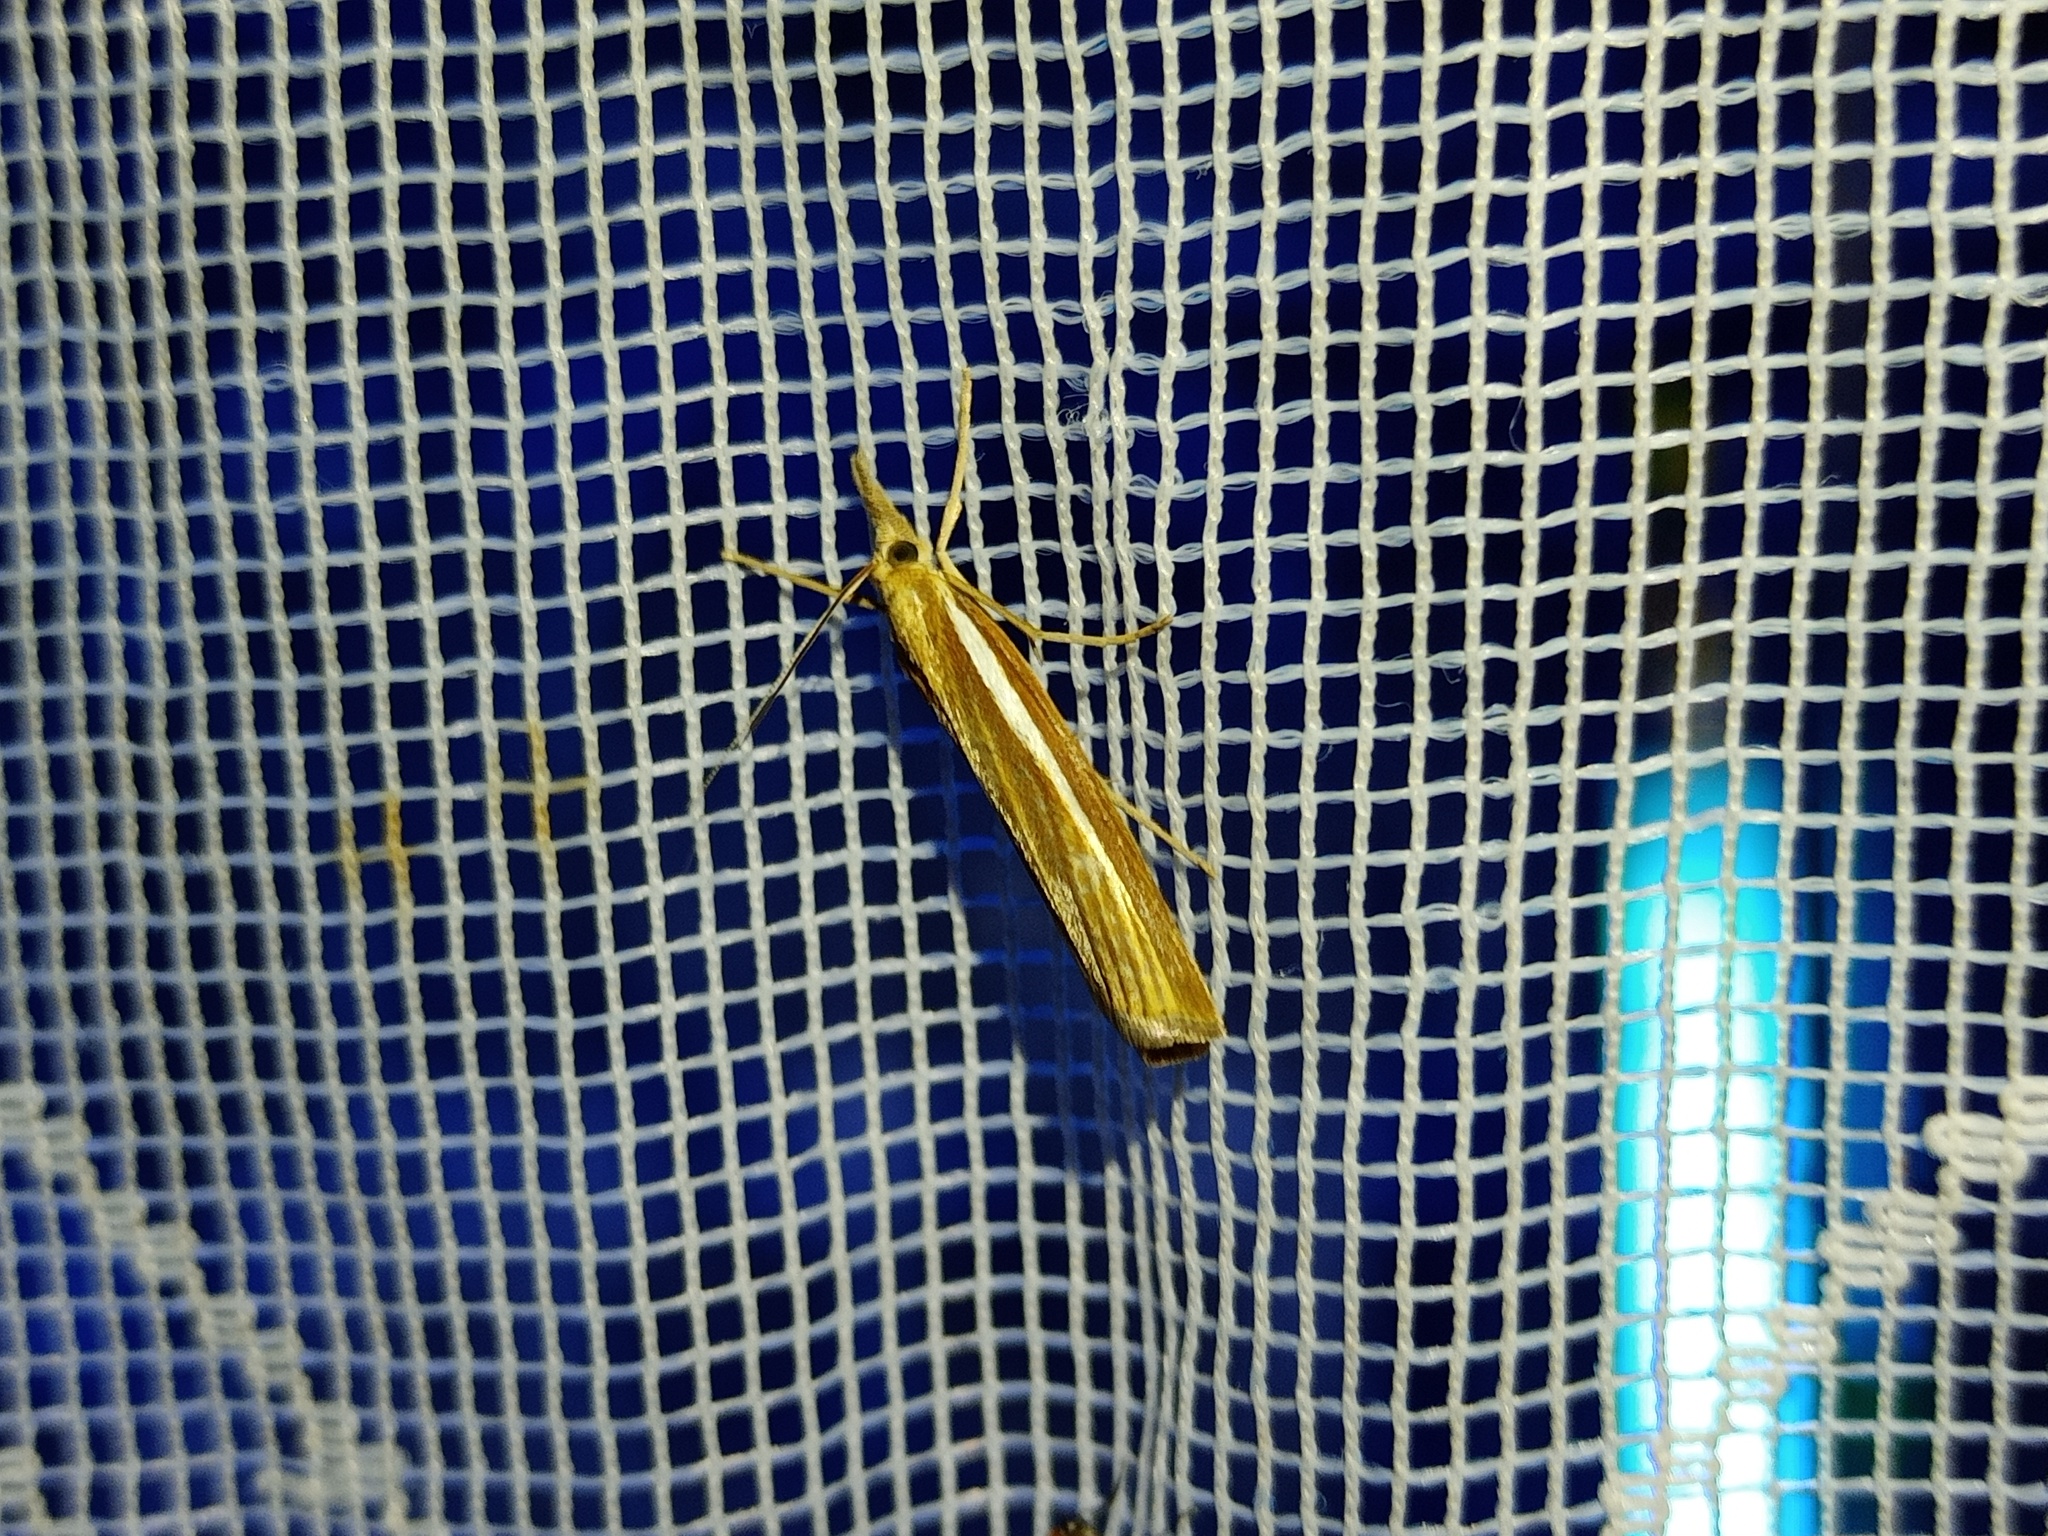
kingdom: Animalia
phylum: Arthropoda
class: Insecta
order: Lepidoptera
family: Crambidae
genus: Agriphila
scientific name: Agriphila tristellus
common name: Common grass-veneer
